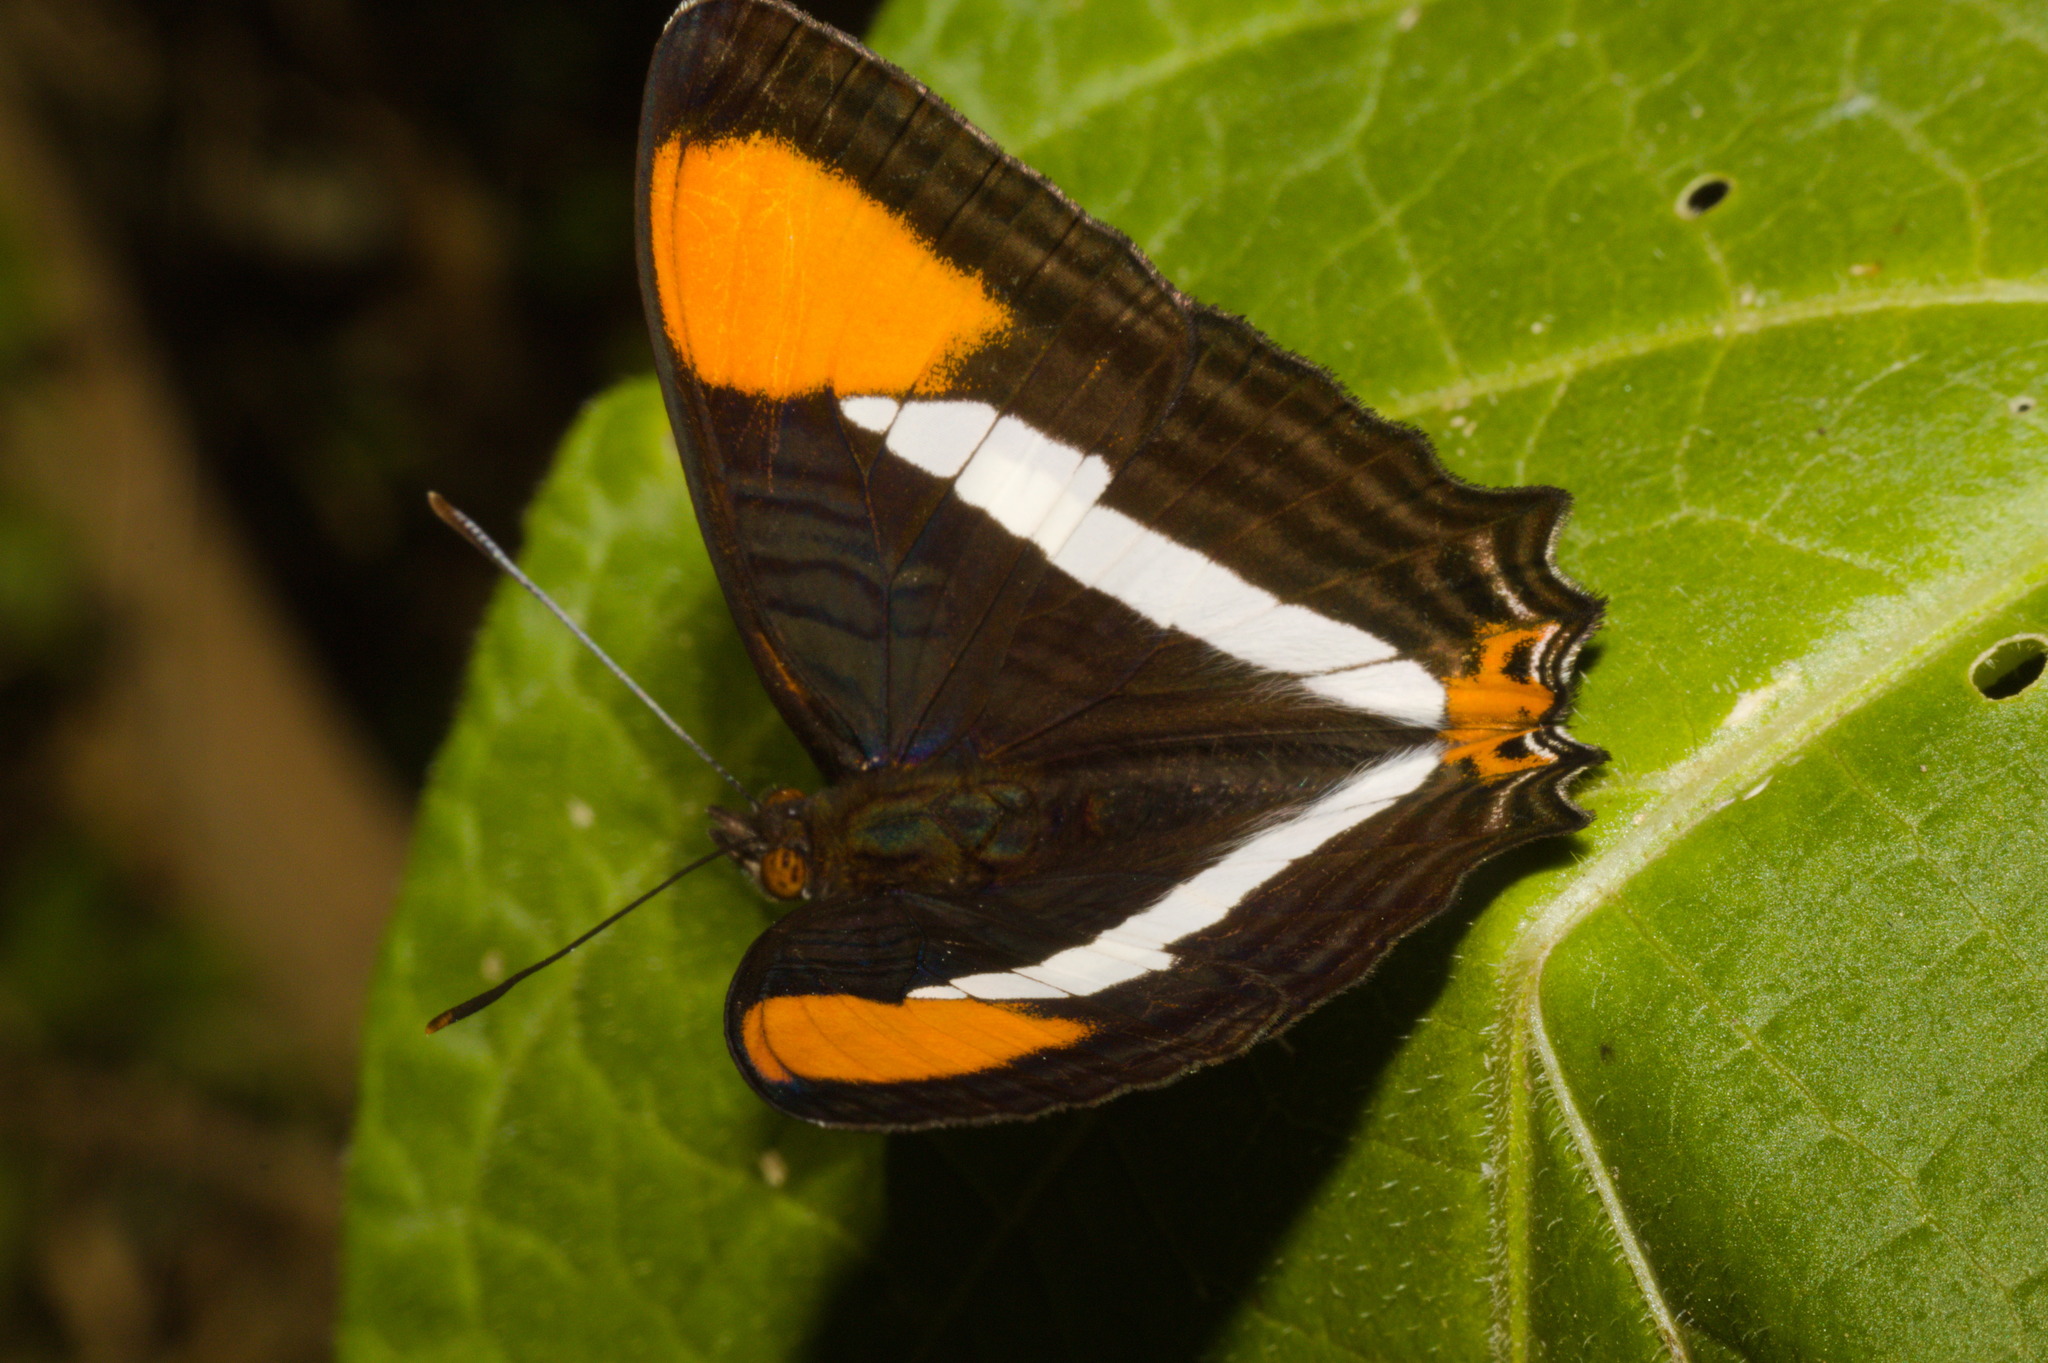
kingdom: Animalia
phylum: Arthropoda
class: Insecta
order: Lepidoptera
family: Nymphalidae
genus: Limenitis
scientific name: Limenitis syma
